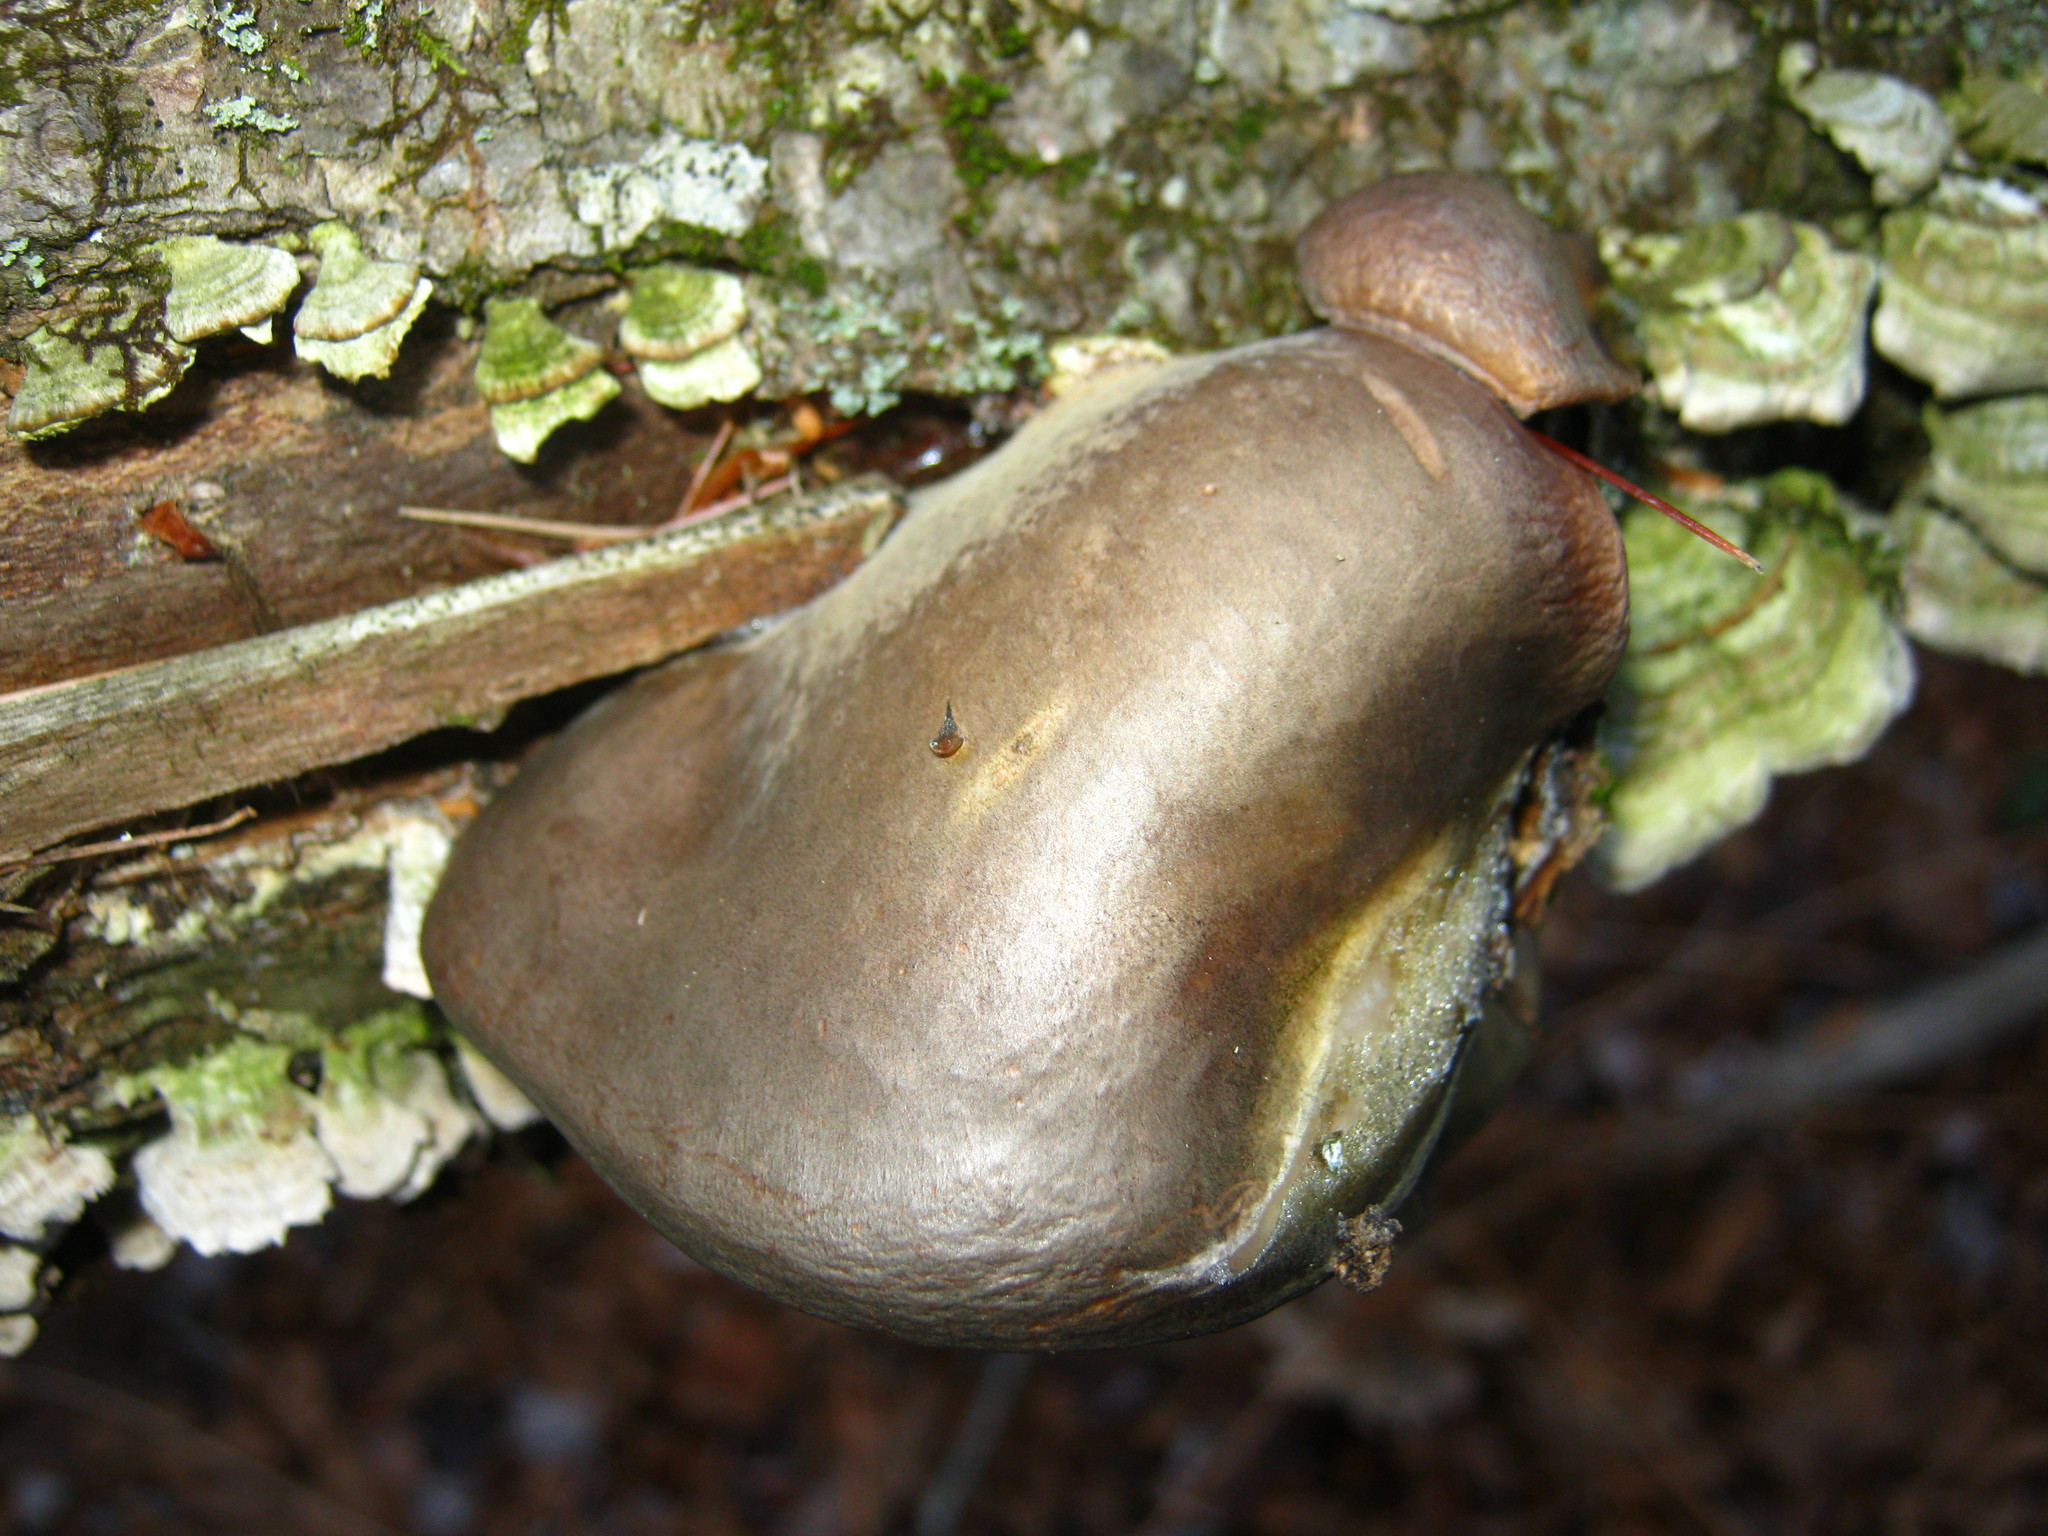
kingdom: Fungi
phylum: Basidiomycota
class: Agaricomycetes
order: Agaricales
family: Sarcomyxaceae
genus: Sarcomyxa
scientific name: Sarcomyxa serotina
